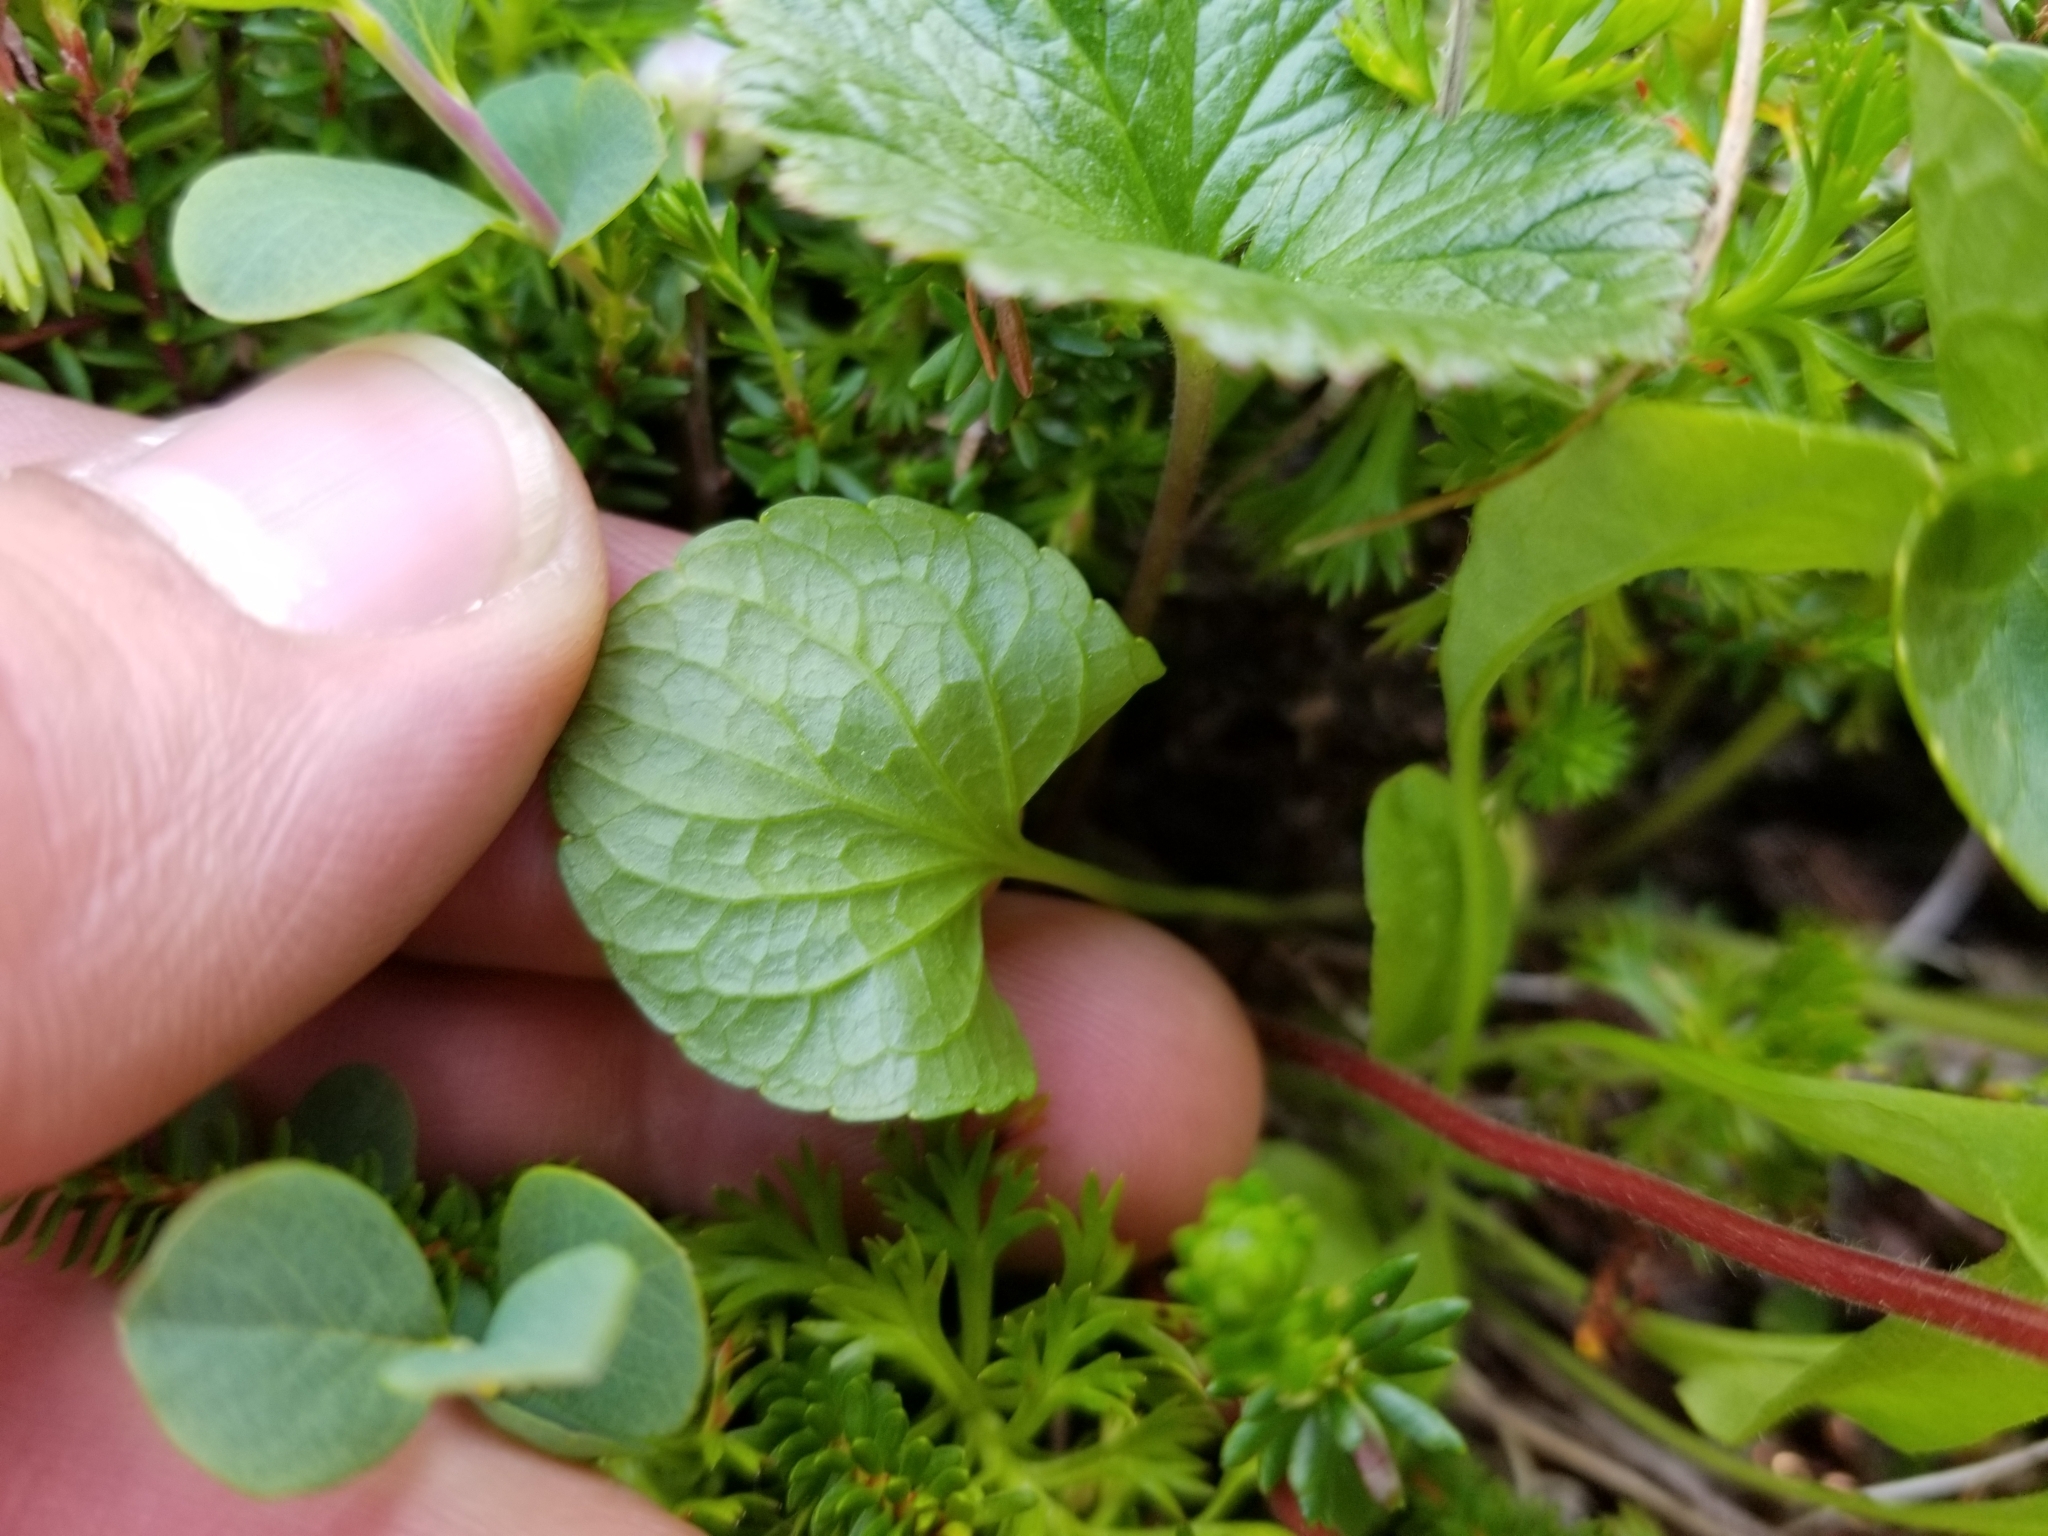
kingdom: Plantae
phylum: Tracheophyta
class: Magnoliopsida
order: Malpighiales
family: Violaceae
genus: Viola
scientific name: Viola langsdorffii
